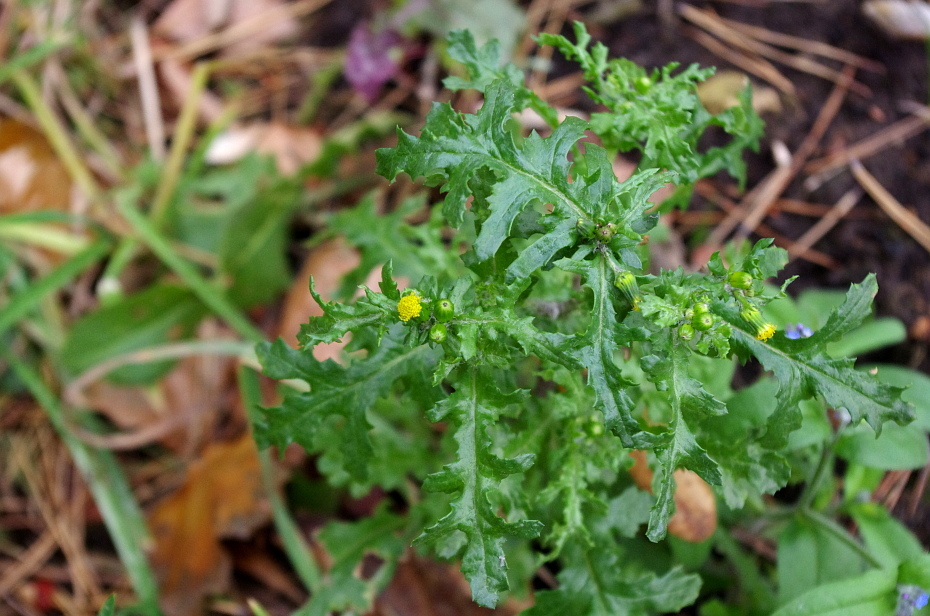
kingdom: Plantae
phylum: Tracheophyta
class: Magnoliopsida
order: Asterales
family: Asteraceae
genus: Senecio
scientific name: Senecio vulgaris
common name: Old-man-in-the-spring
